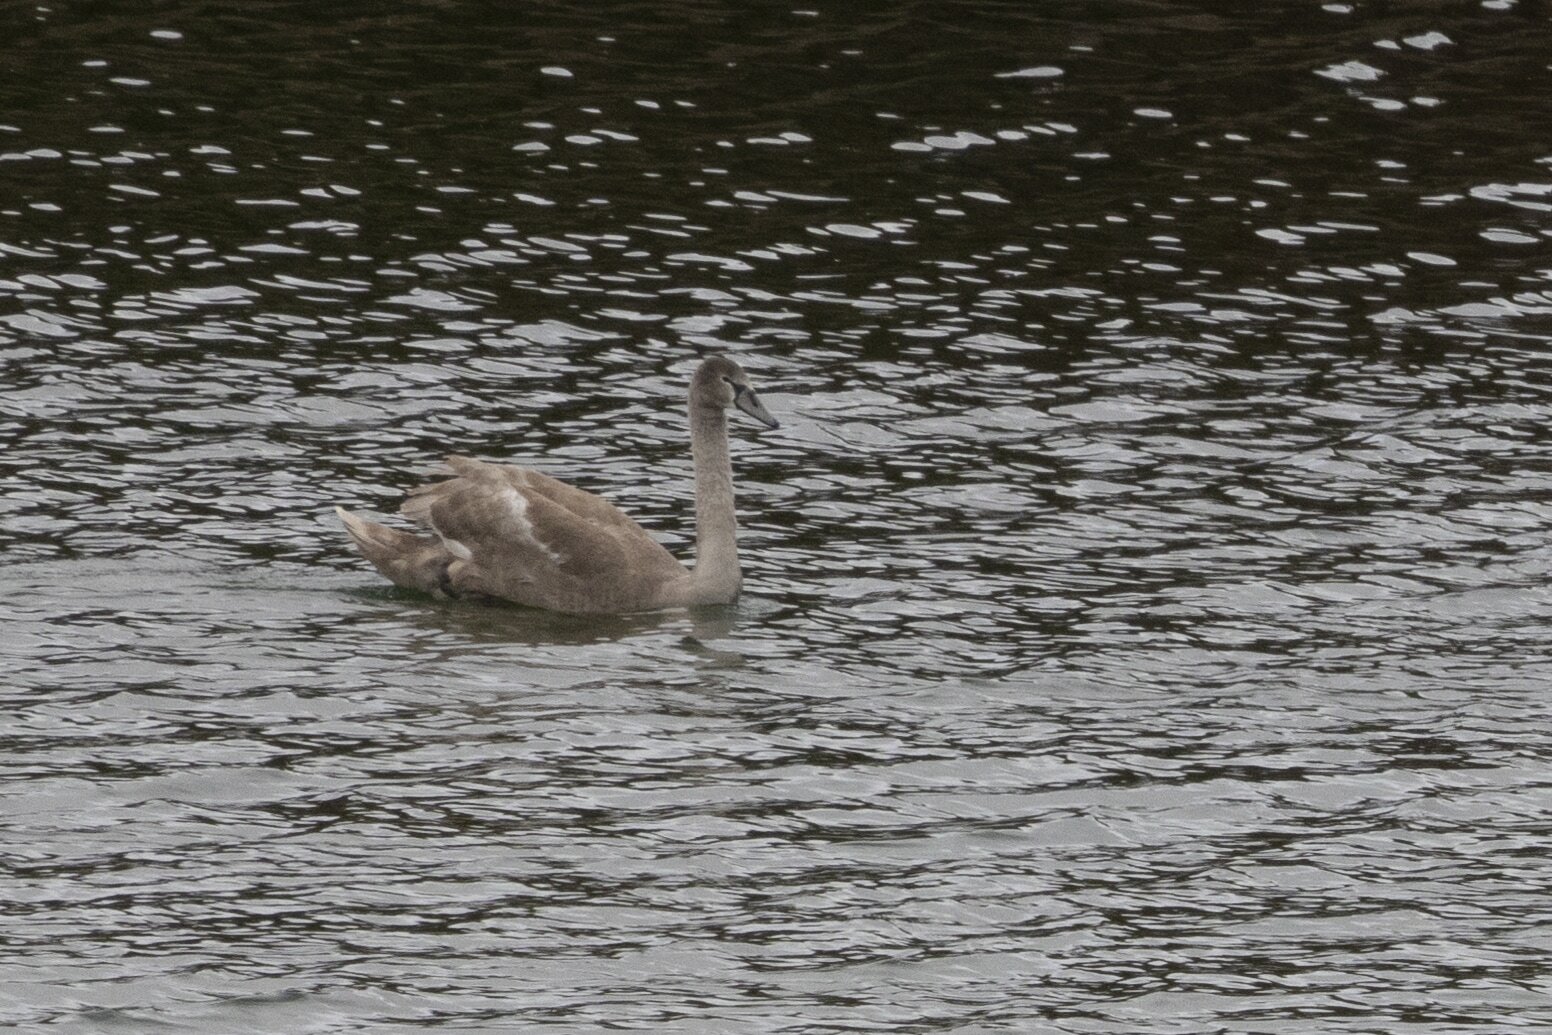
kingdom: Animalia
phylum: Chordata
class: Aves
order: Anseriformes
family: Anatidae
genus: Cygnus
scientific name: Cygnus olor
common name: Mute swan
